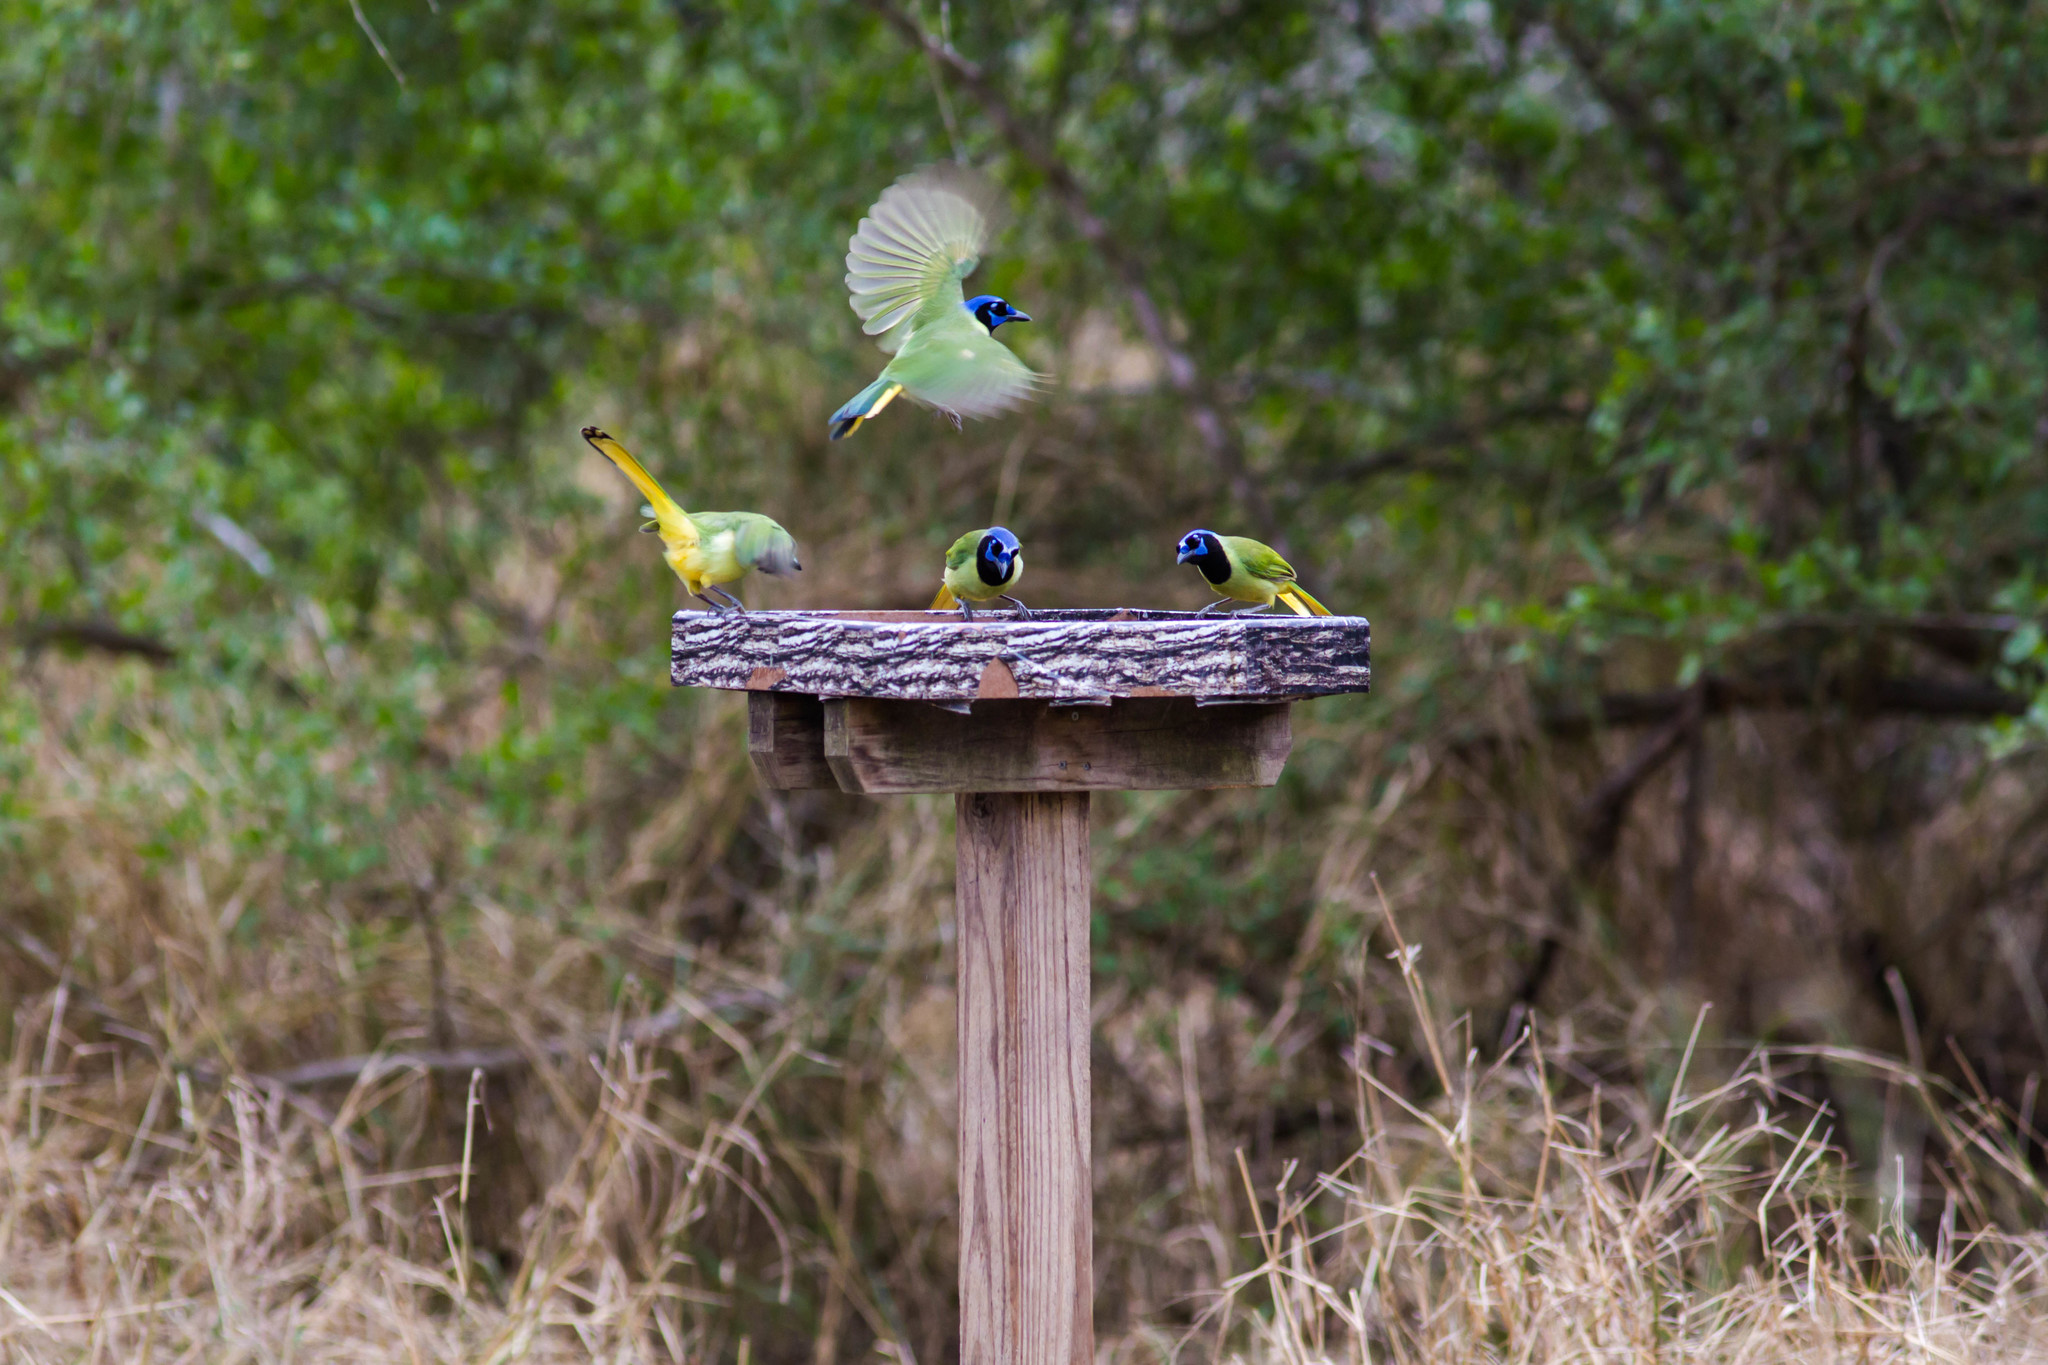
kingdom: Animalia
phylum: Chordata
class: Aves
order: Passeriformes
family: Corvidae
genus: Cyanocorax
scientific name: Cyanocorax yncas
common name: Green jay
